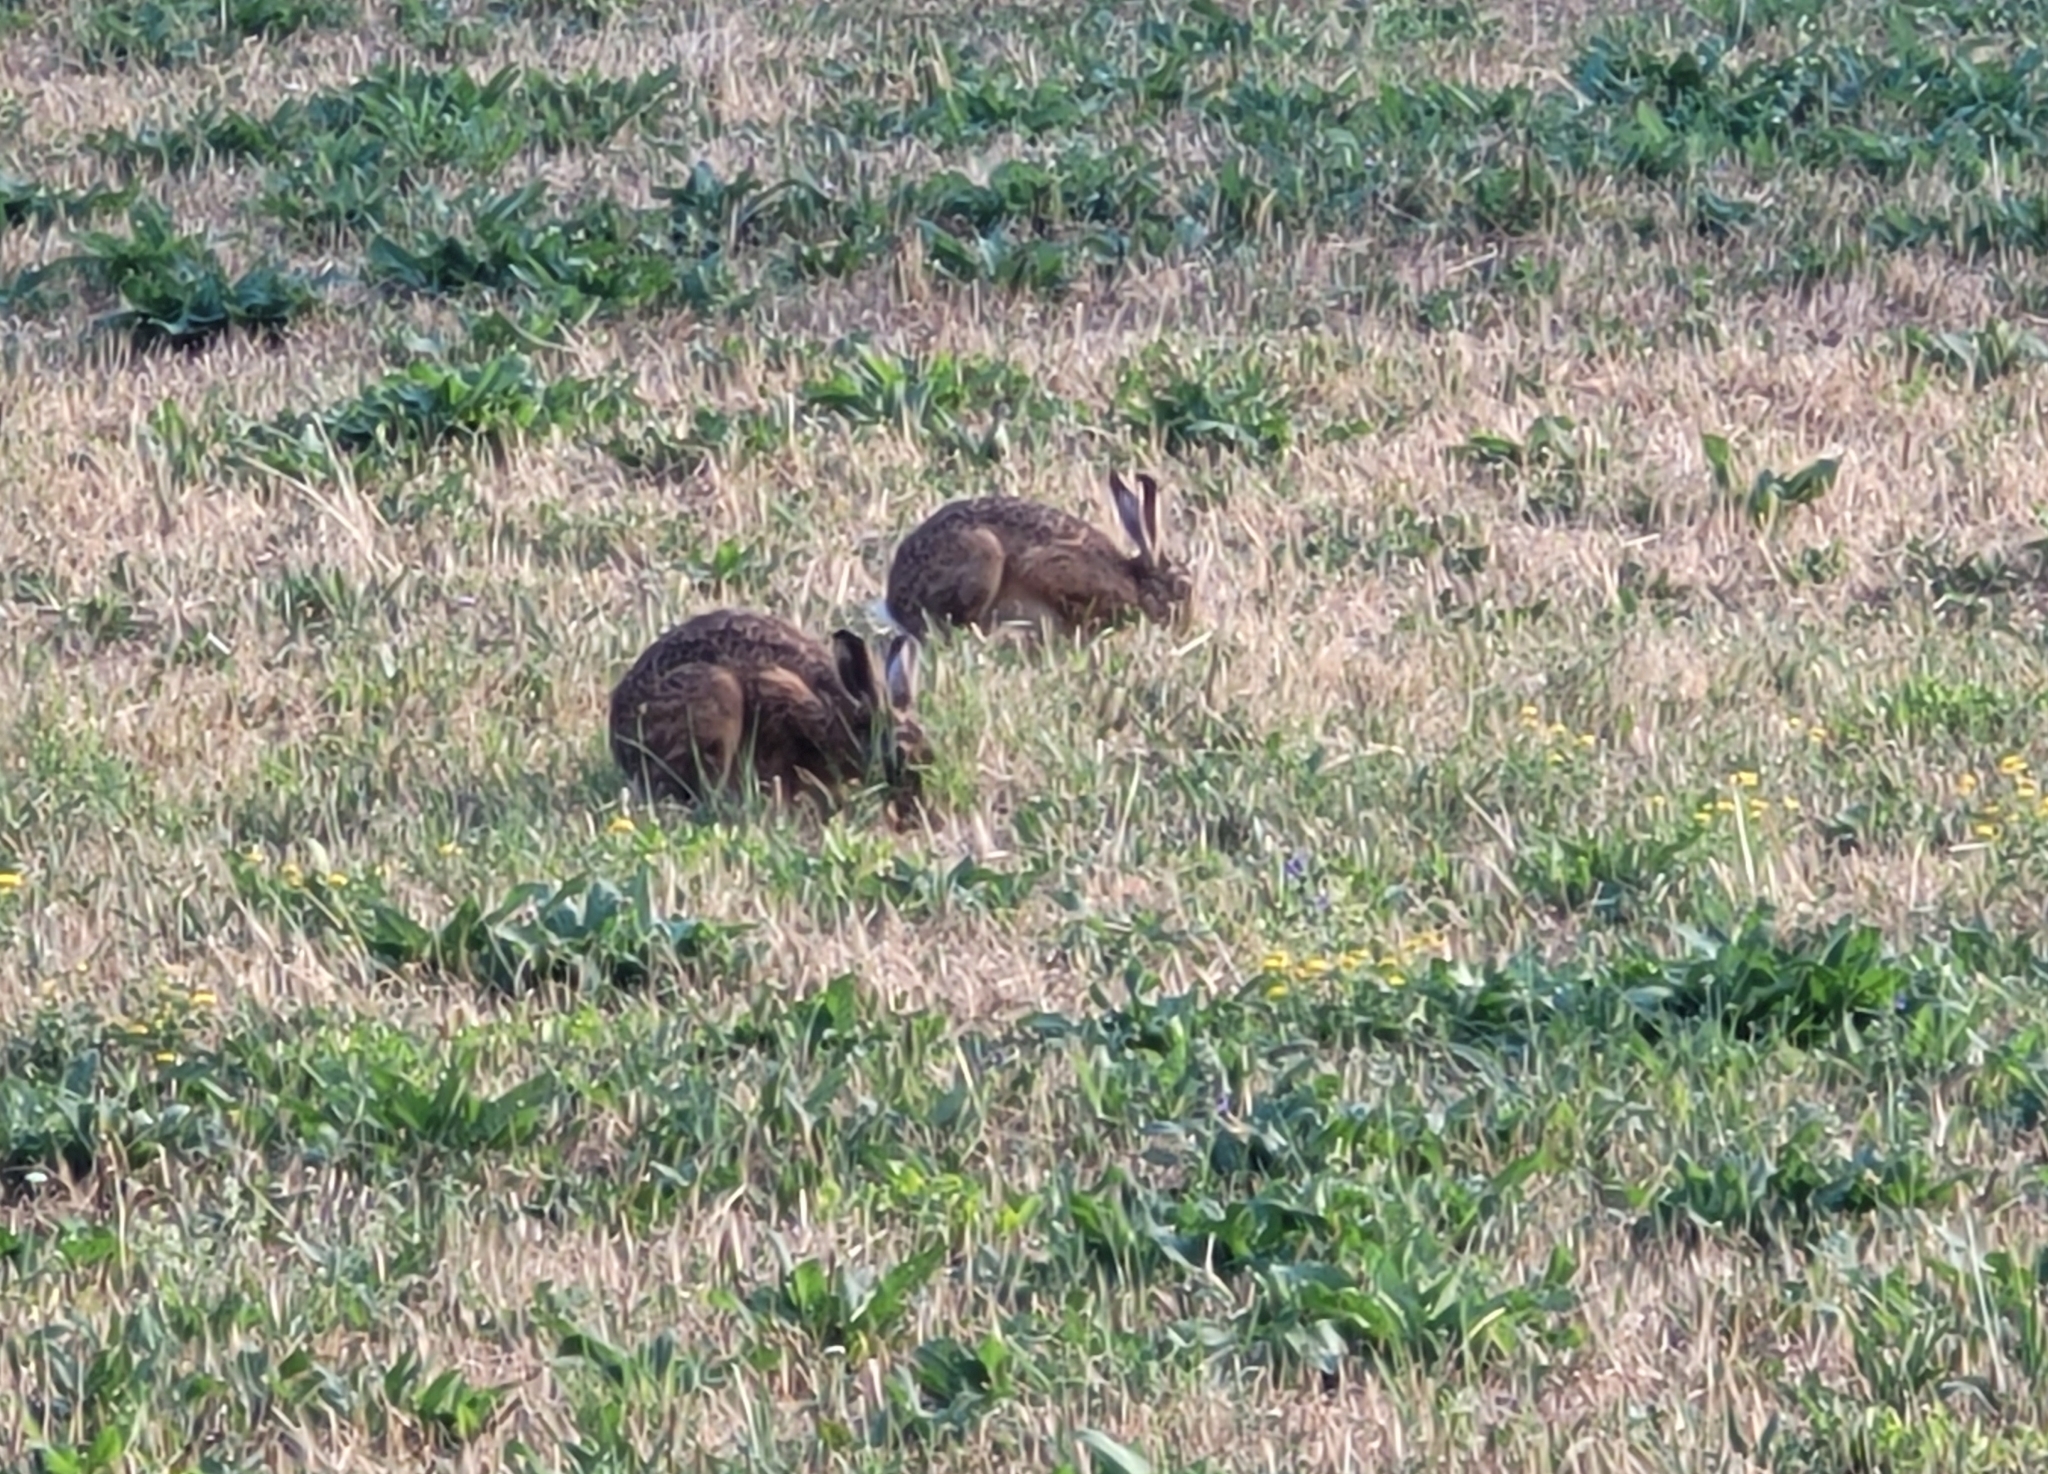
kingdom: Animalia
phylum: Chordata
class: Mammalia
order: Lagomorpha
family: Leporidae
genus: Lepus
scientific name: Lepus europaeus
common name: European hare
